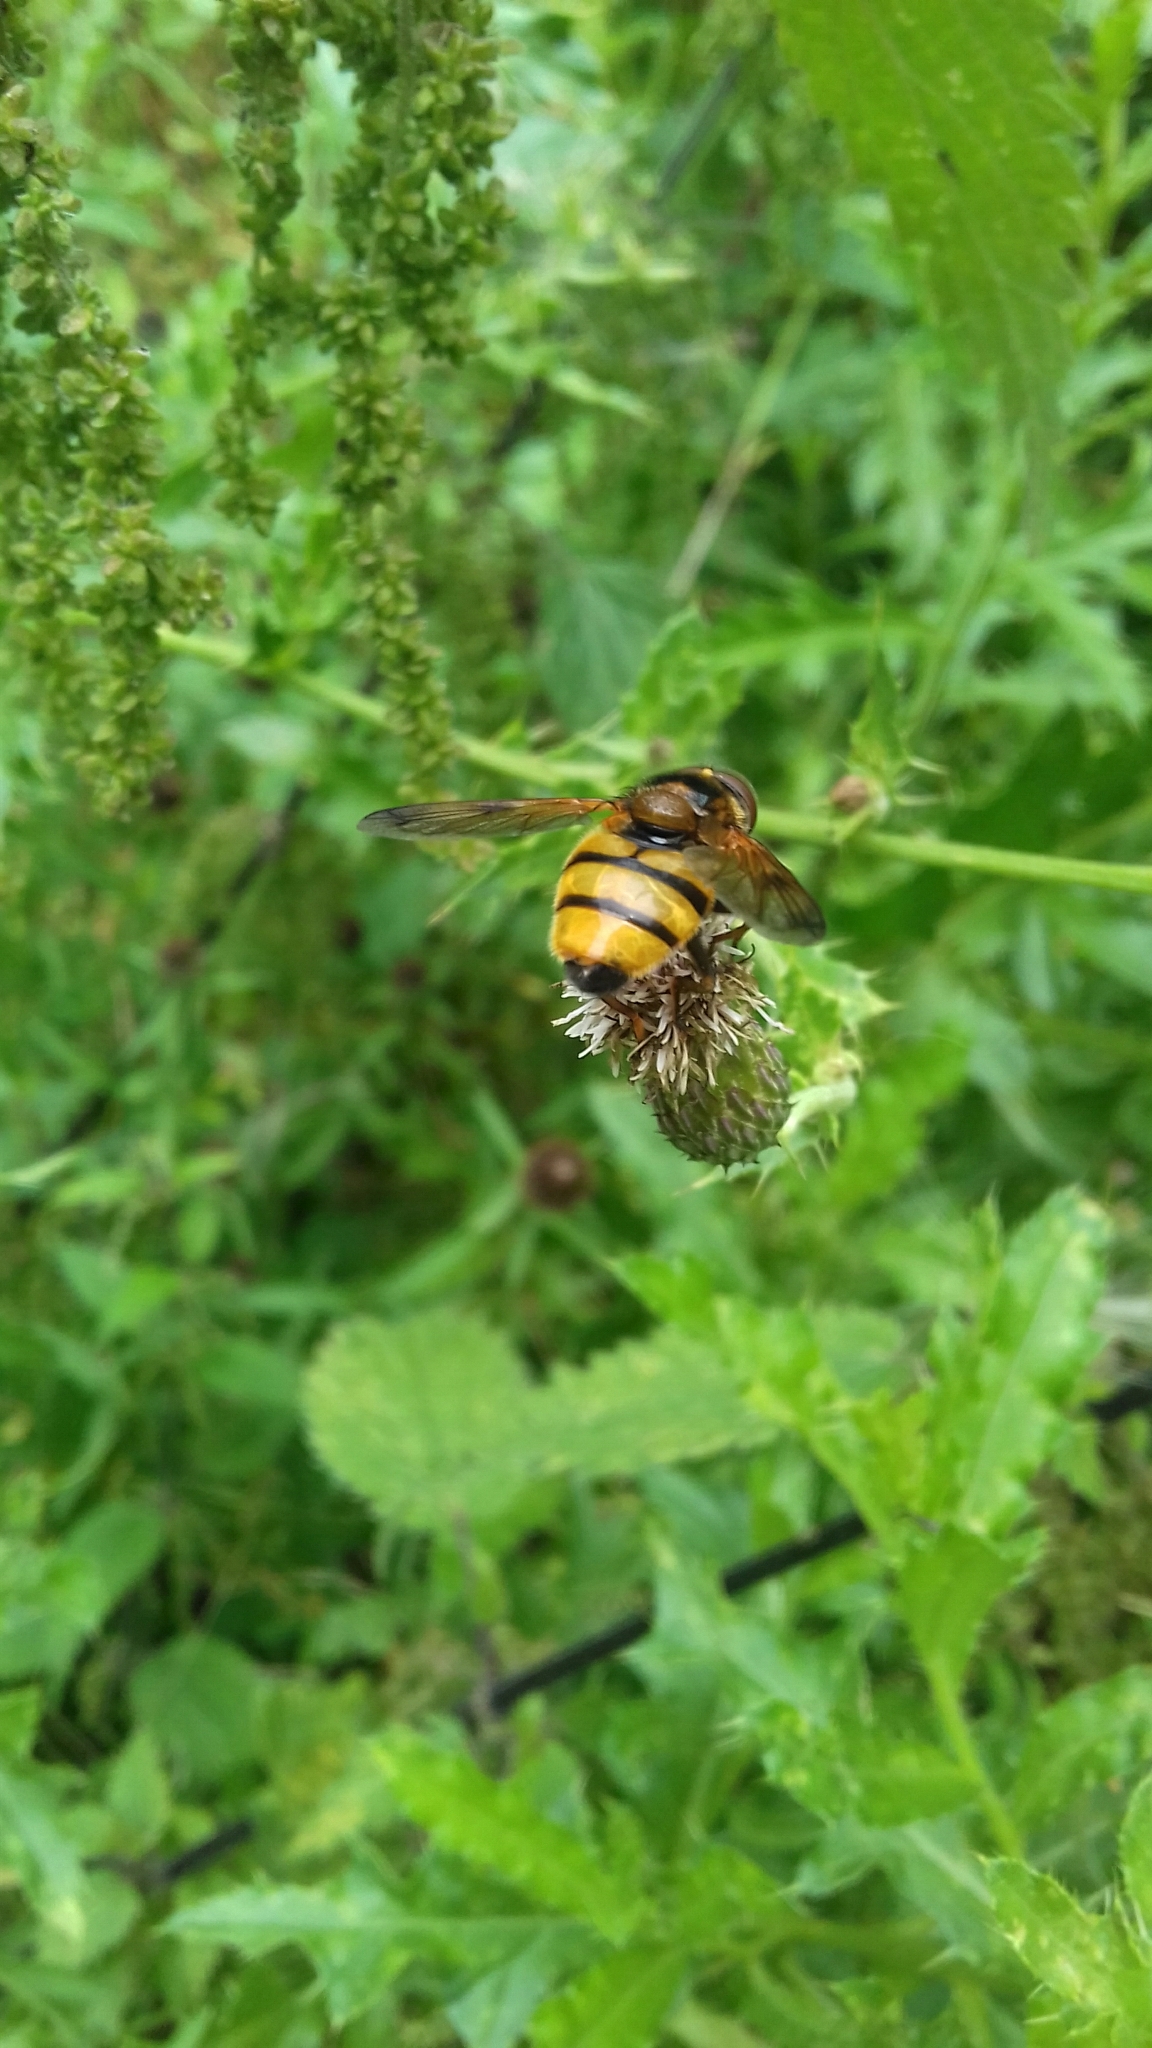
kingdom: Animalia
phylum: Arthropoda
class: Insecta
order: Diptera
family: Syrphidae
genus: Volucella
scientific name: Volucella inanis
